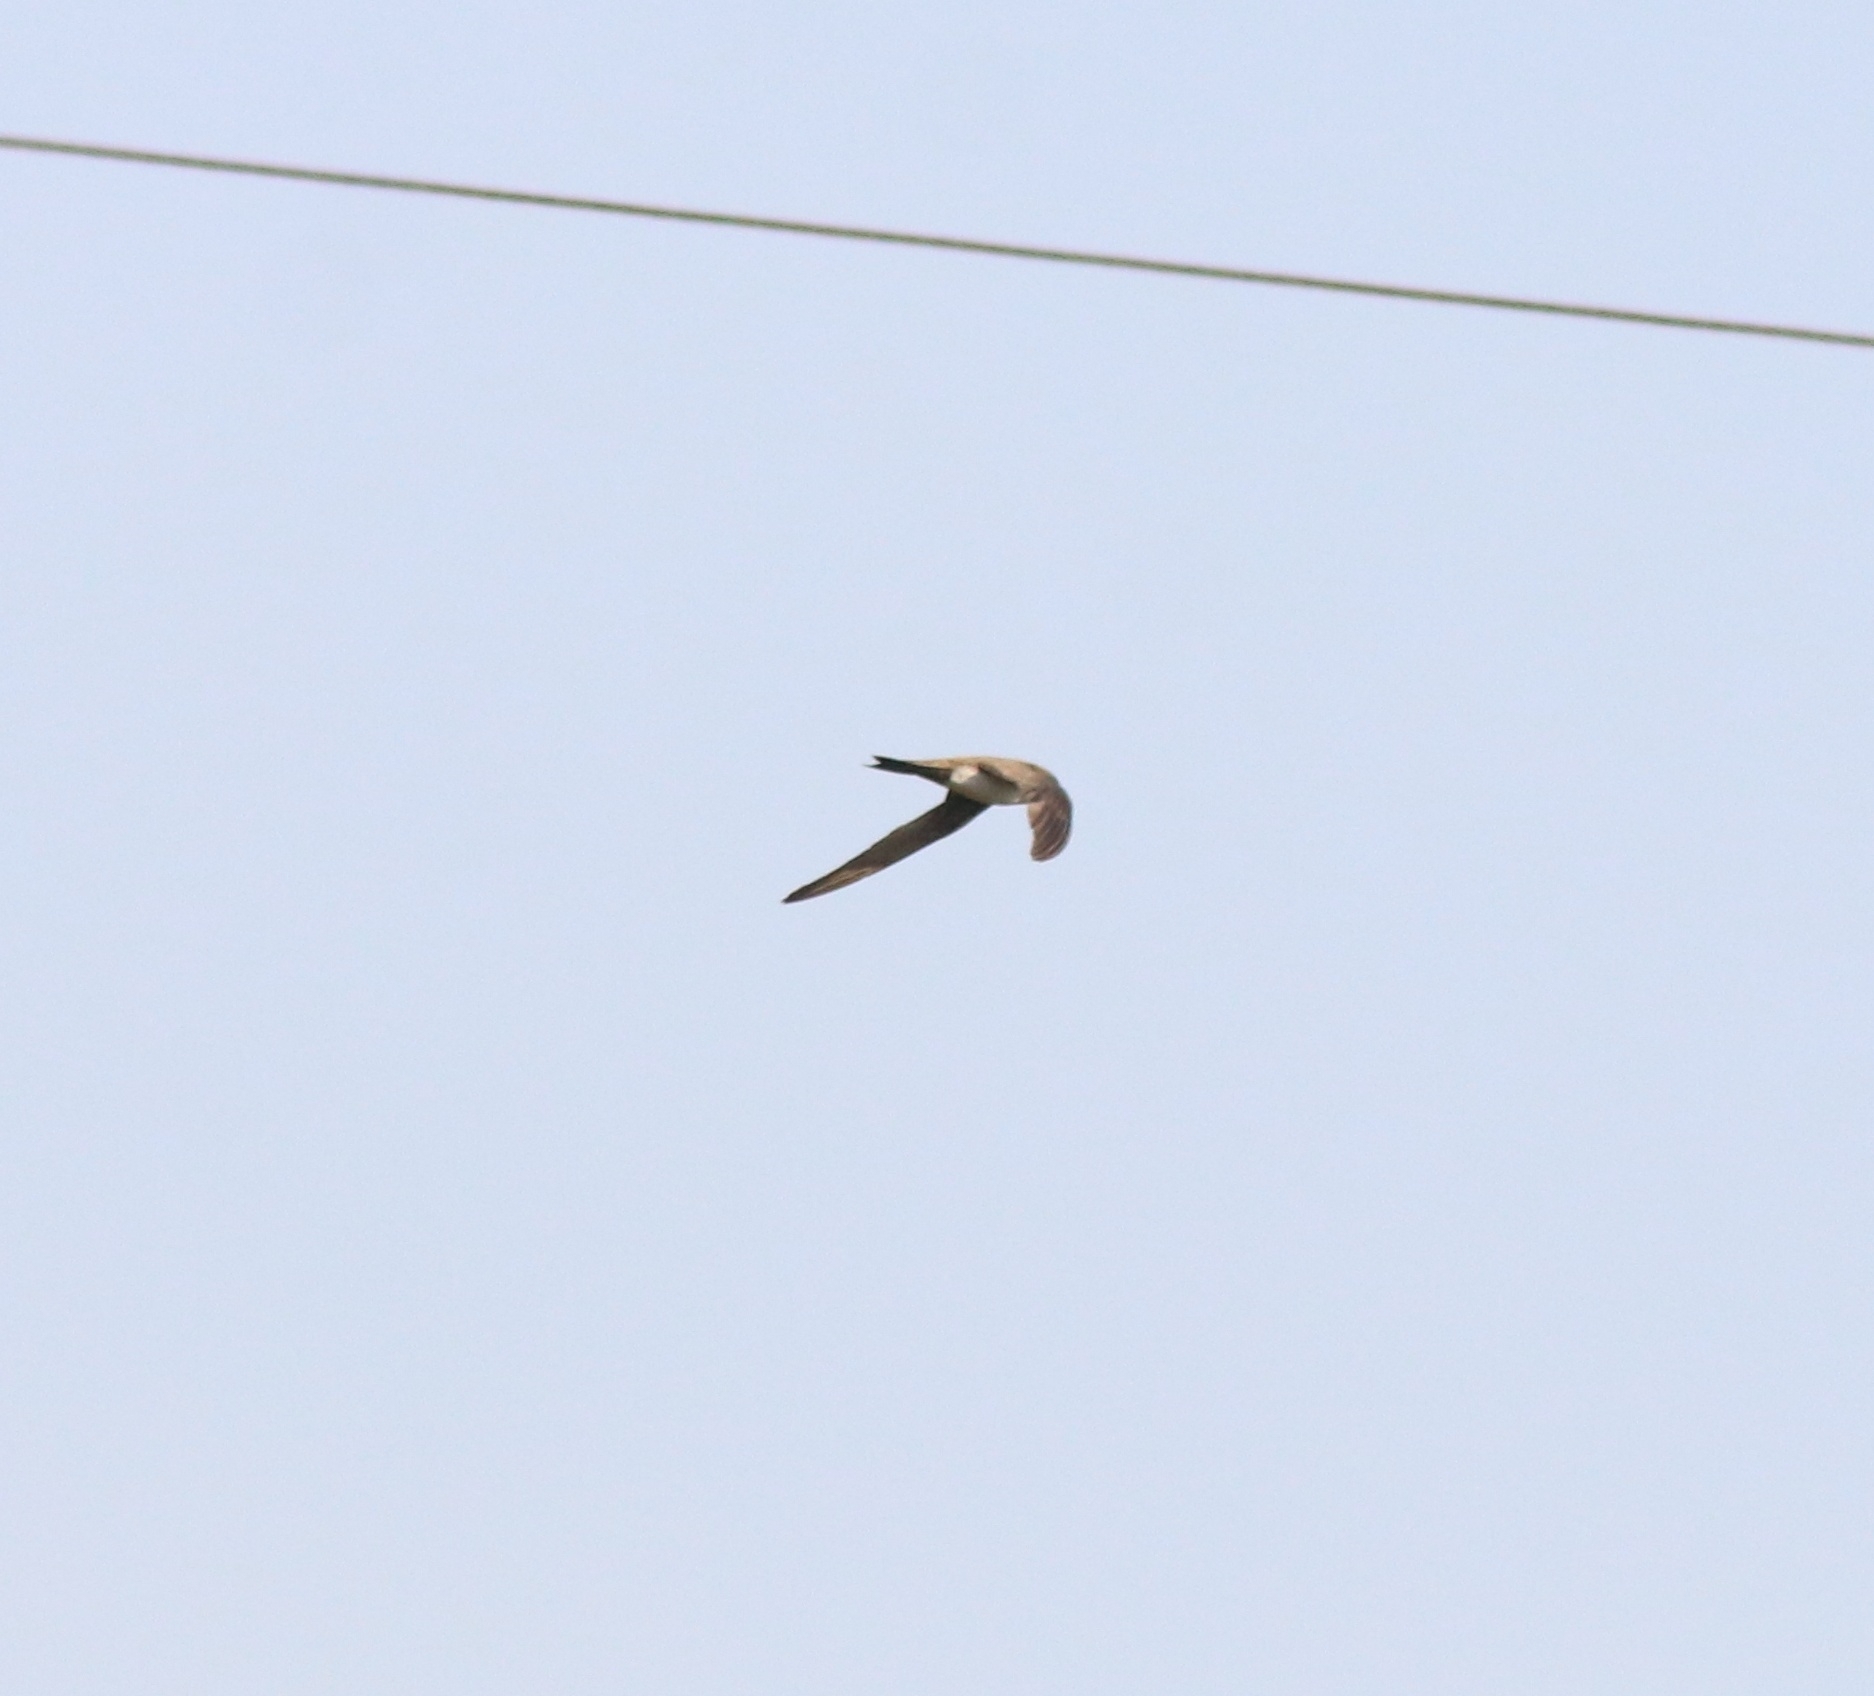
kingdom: Animalia
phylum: Chordata
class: Aves
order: Apodiformes
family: Apodidae
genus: Tachymarptis
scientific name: Tachymarptis melba
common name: Alpine swift
